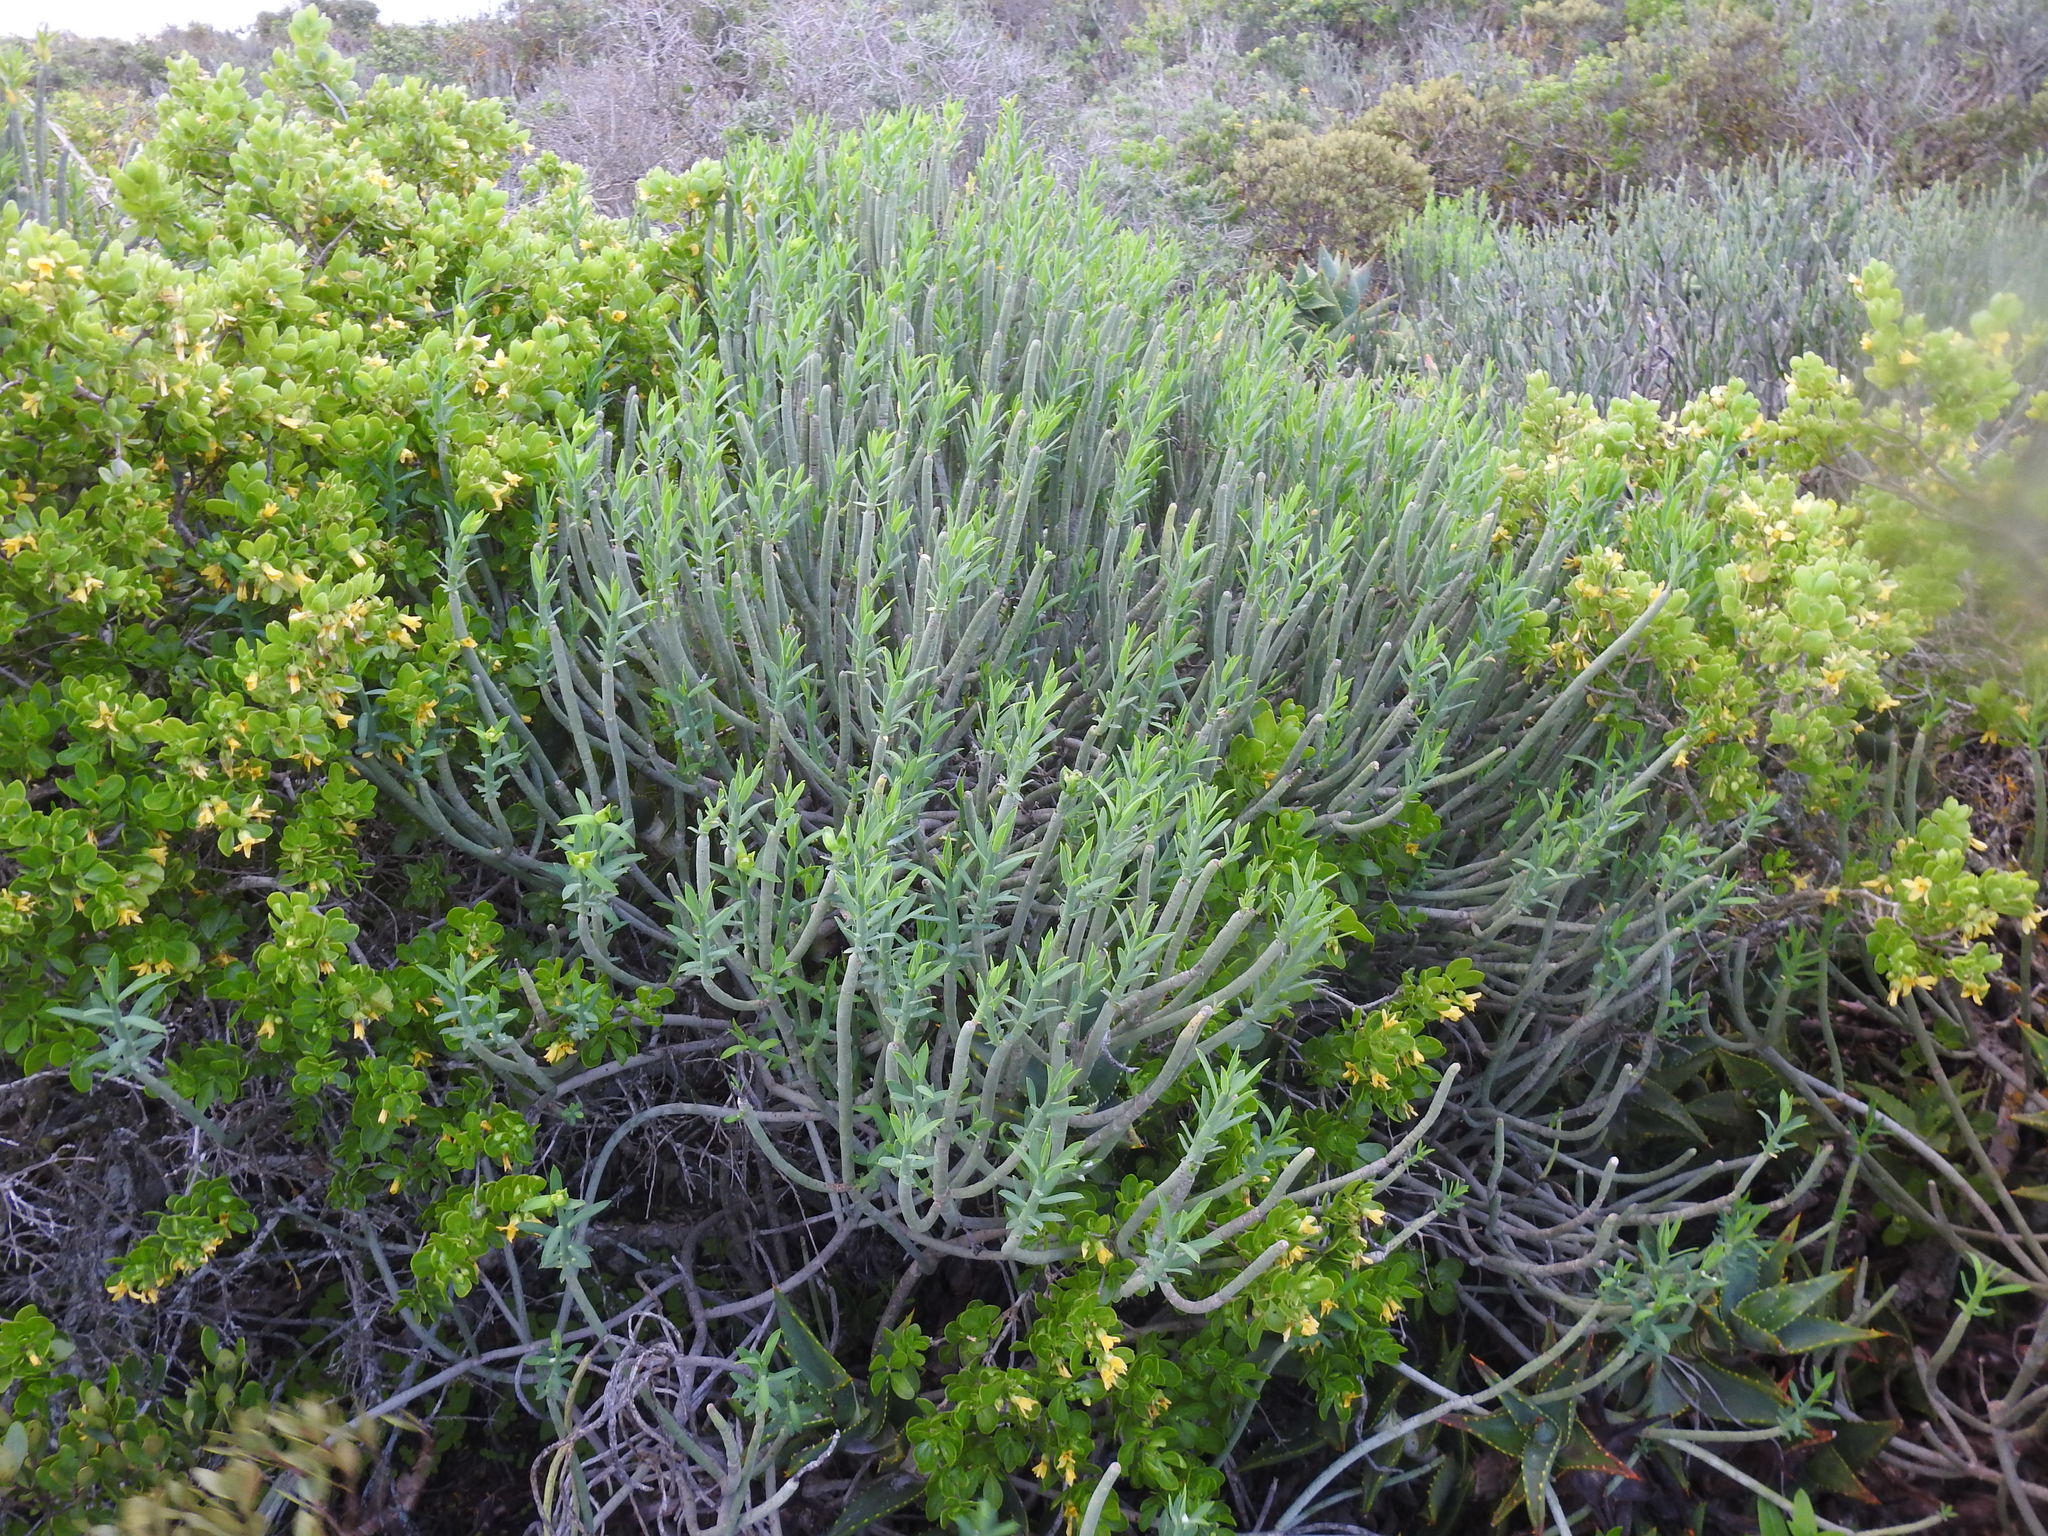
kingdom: Plantae
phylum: Tracheophyta
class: Magnoliopsida
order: Malpighiales
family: Euphorbiaceae
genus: Euphorbia
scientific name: Euphorbia mauritanica
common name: Jackal's-food
